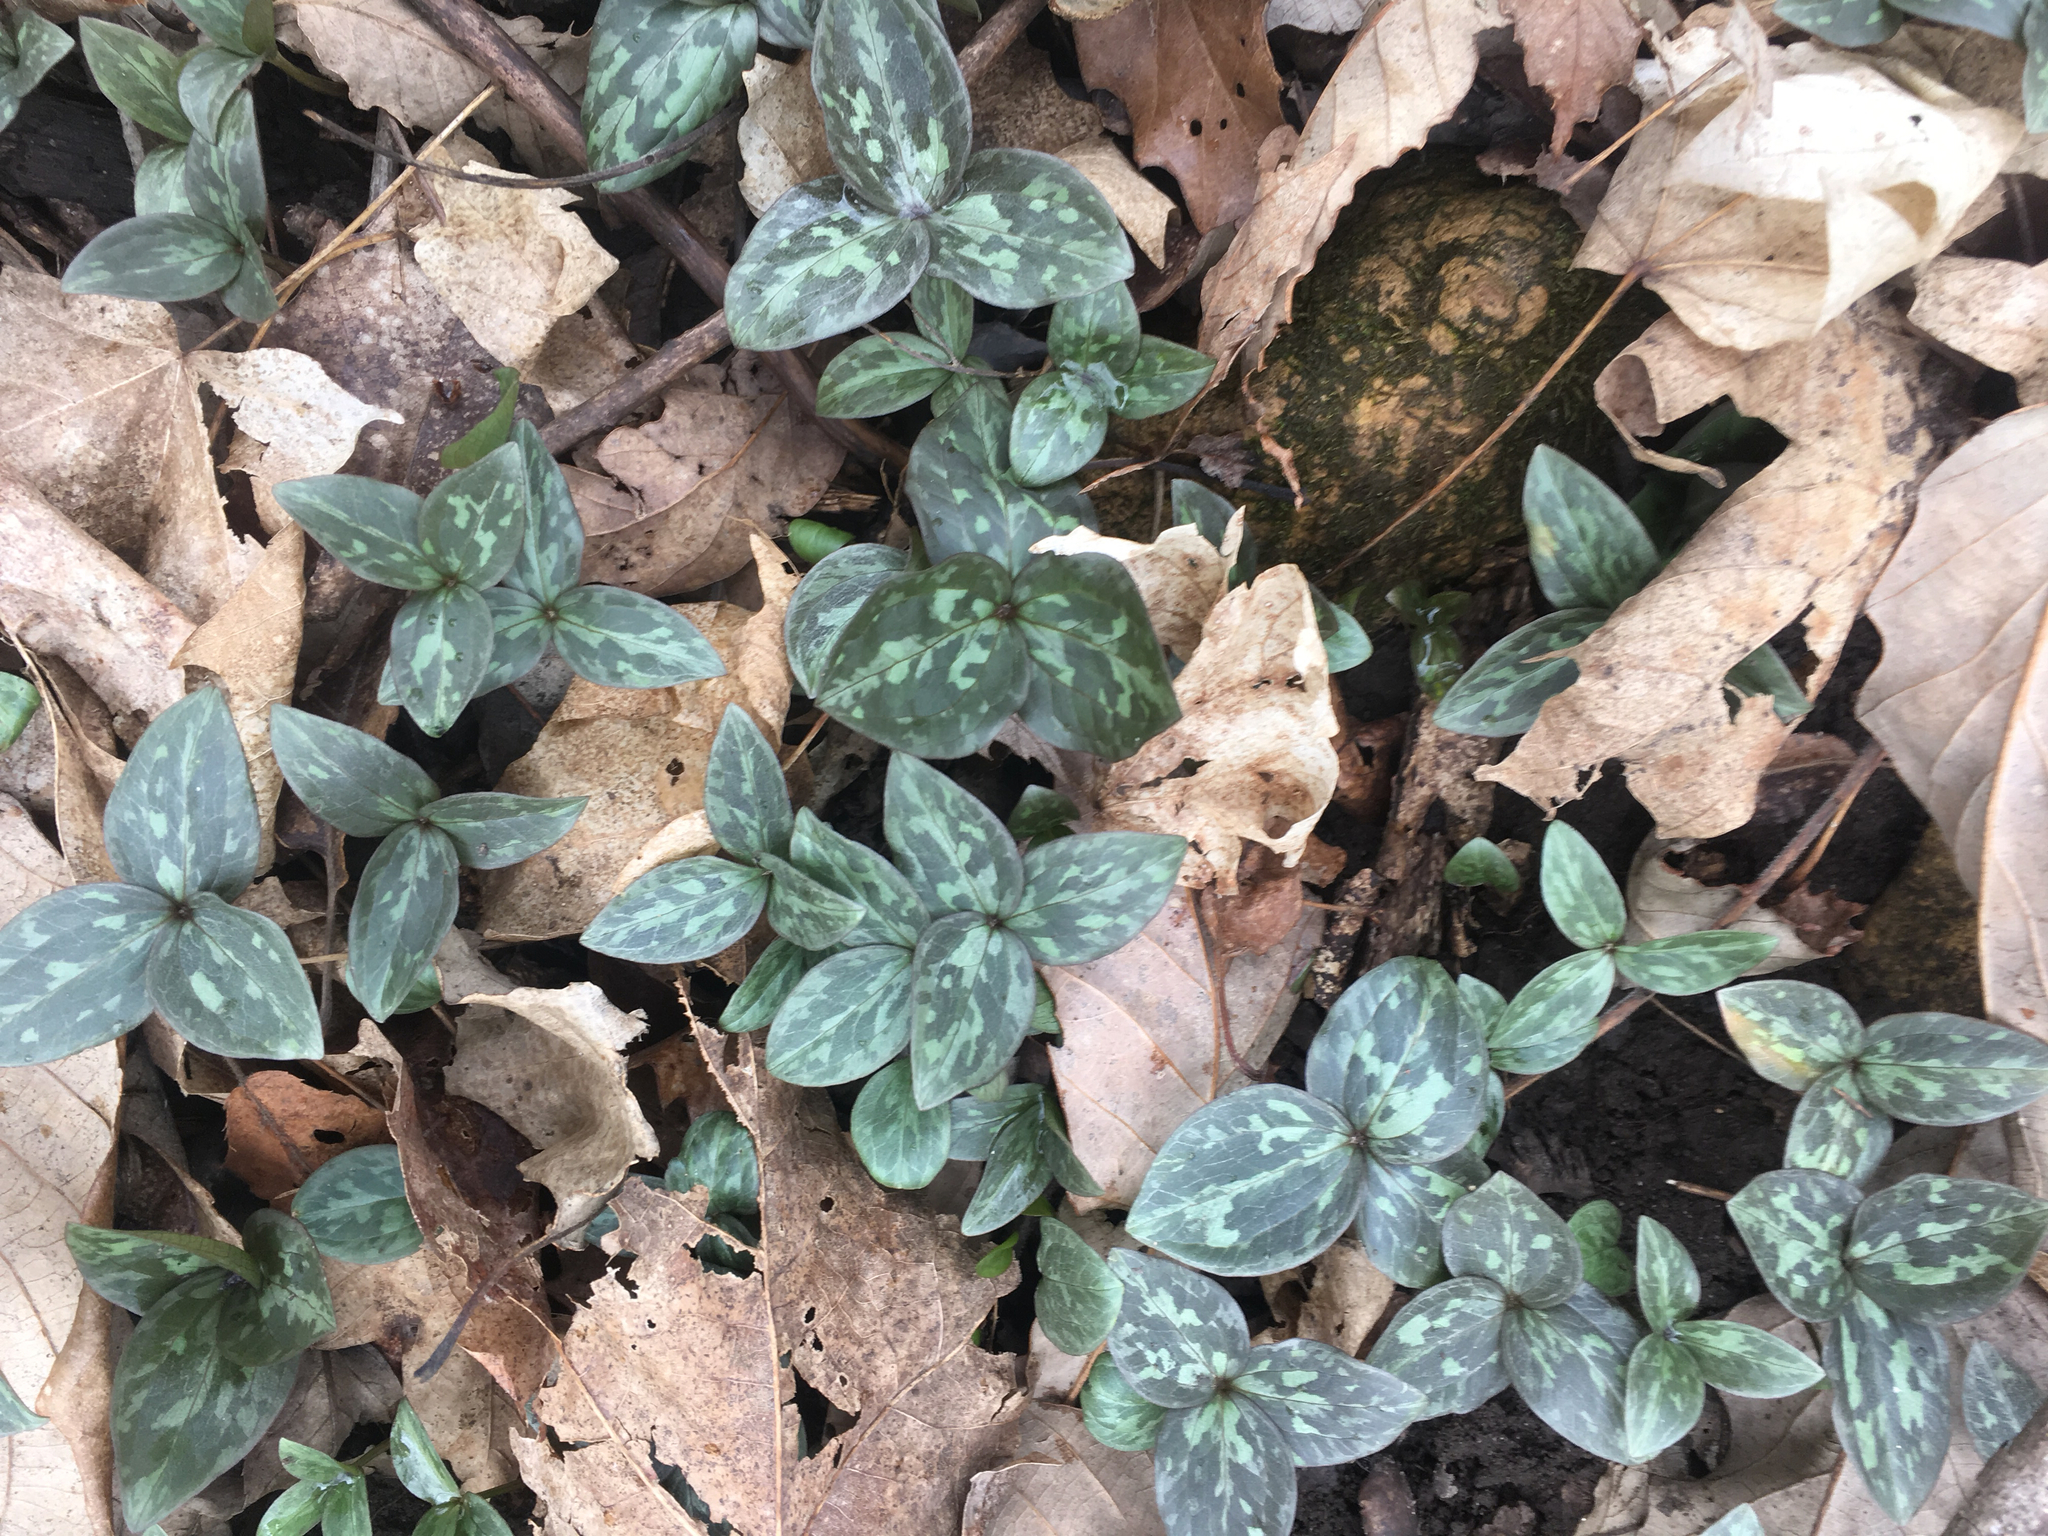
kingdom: Plantae
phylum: Tracheophyta
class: Liliopsida
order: Liliales
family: Melanthiaceae
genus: Trillium
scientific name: Trillium recurvatum
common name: Bloody butcher
